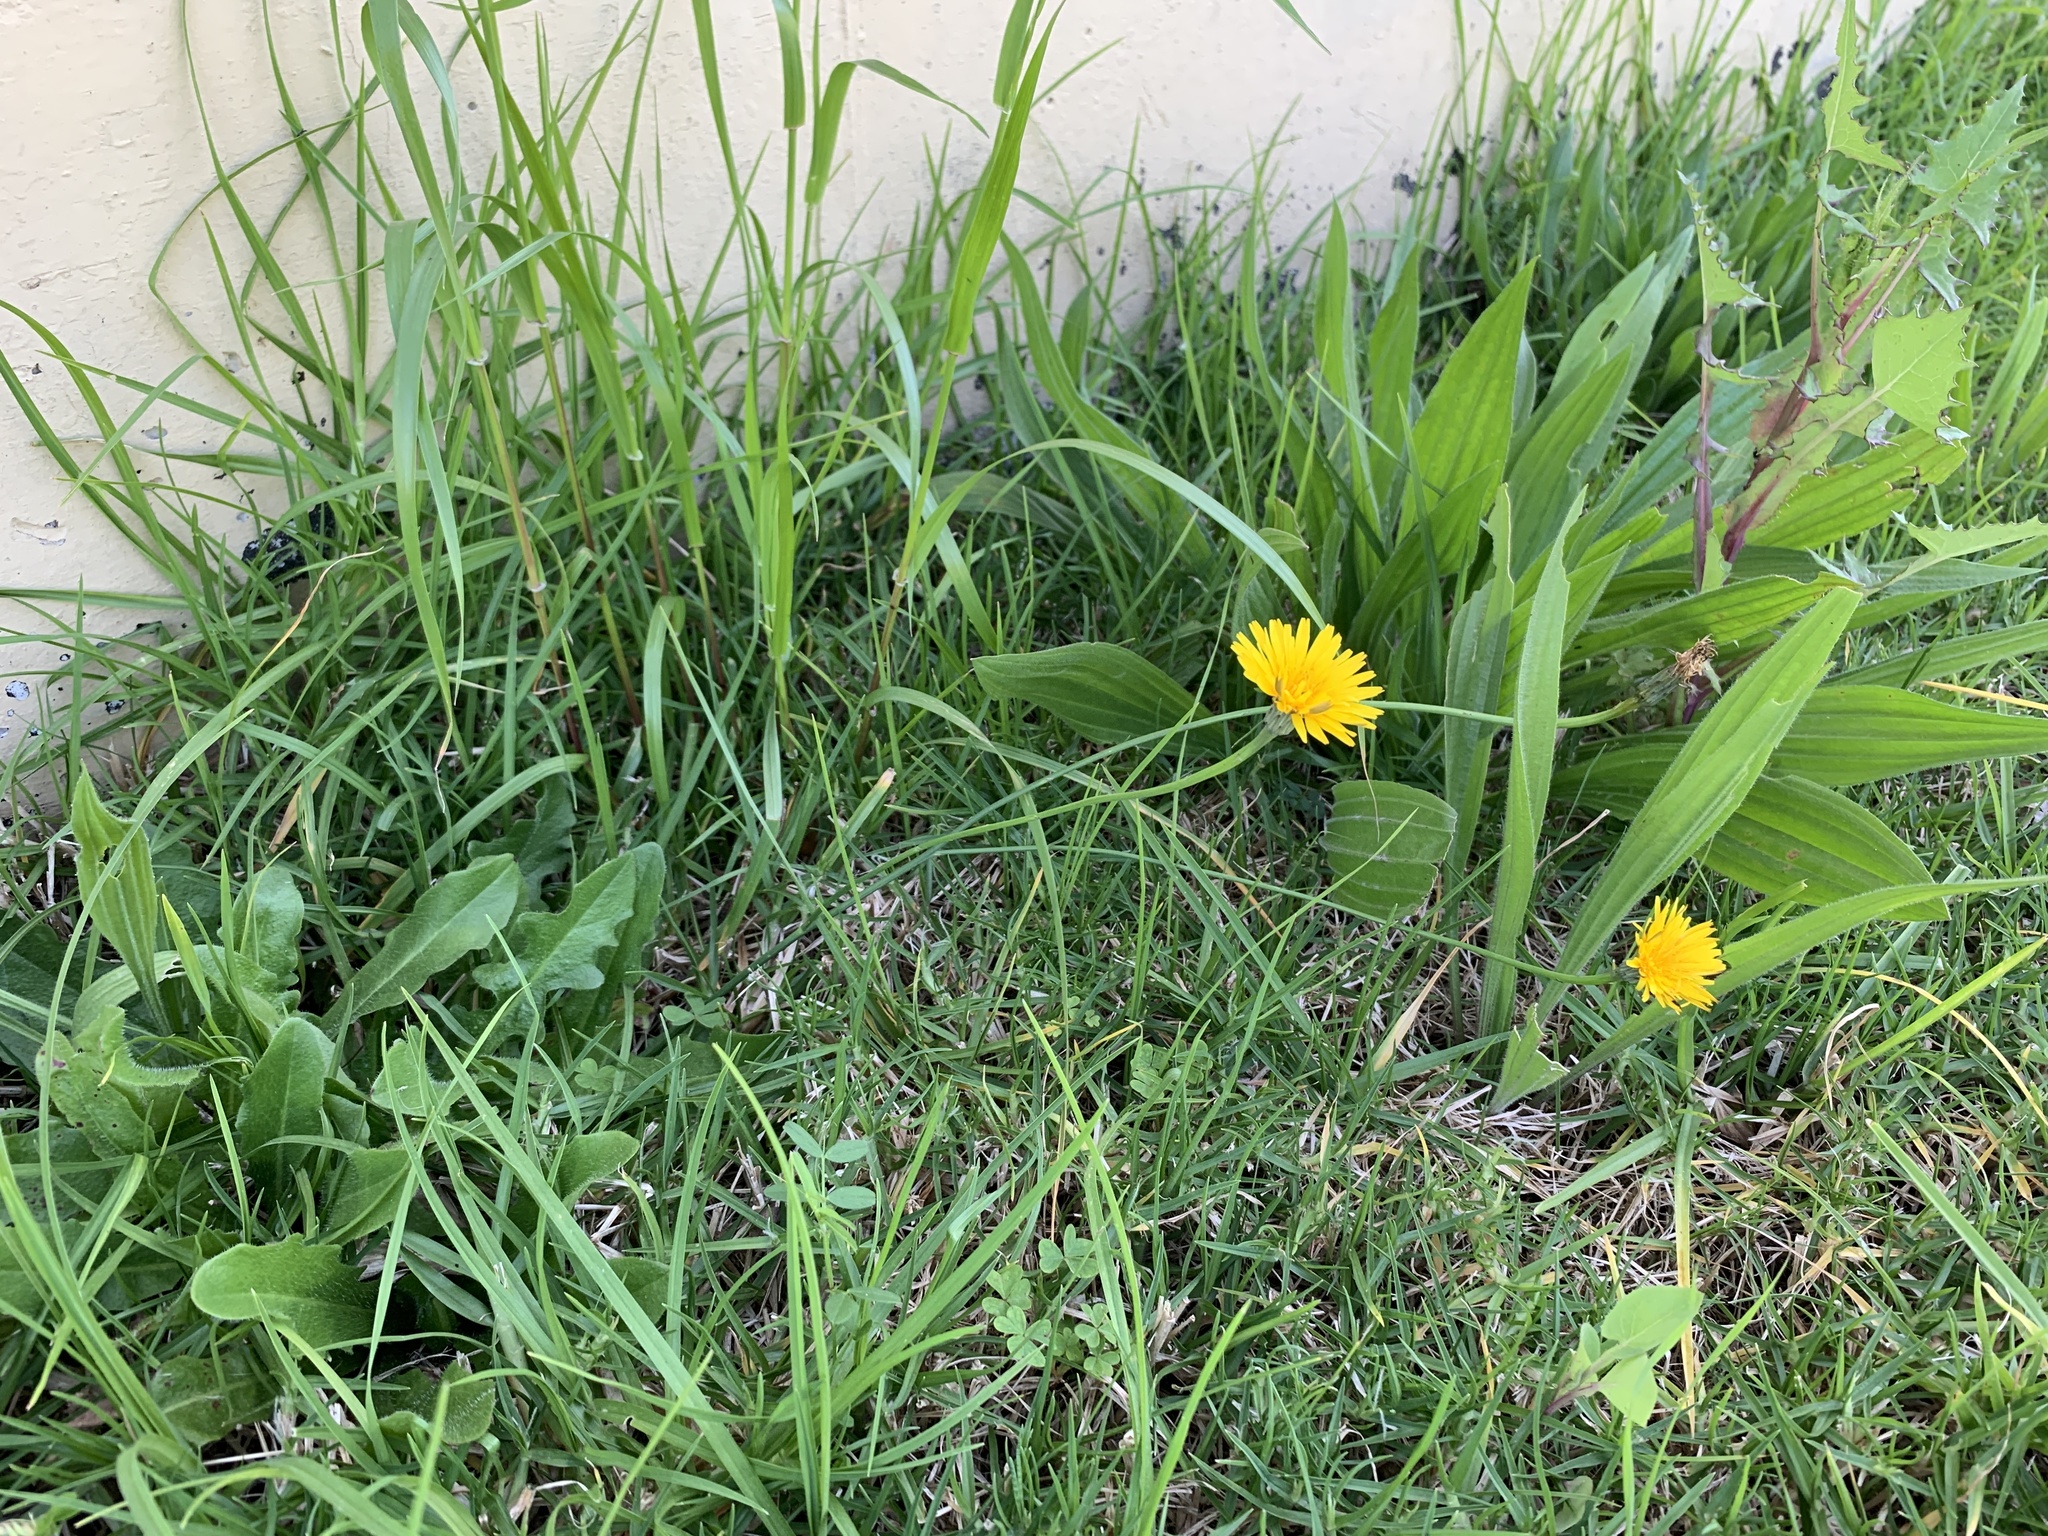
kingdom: Plantae
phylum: Tracheophyta
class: Magnoliopsida
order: Asterales
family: Asteraceae
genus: Hypochaeris
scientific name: Hypochaeris radicata
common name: Flatweed
